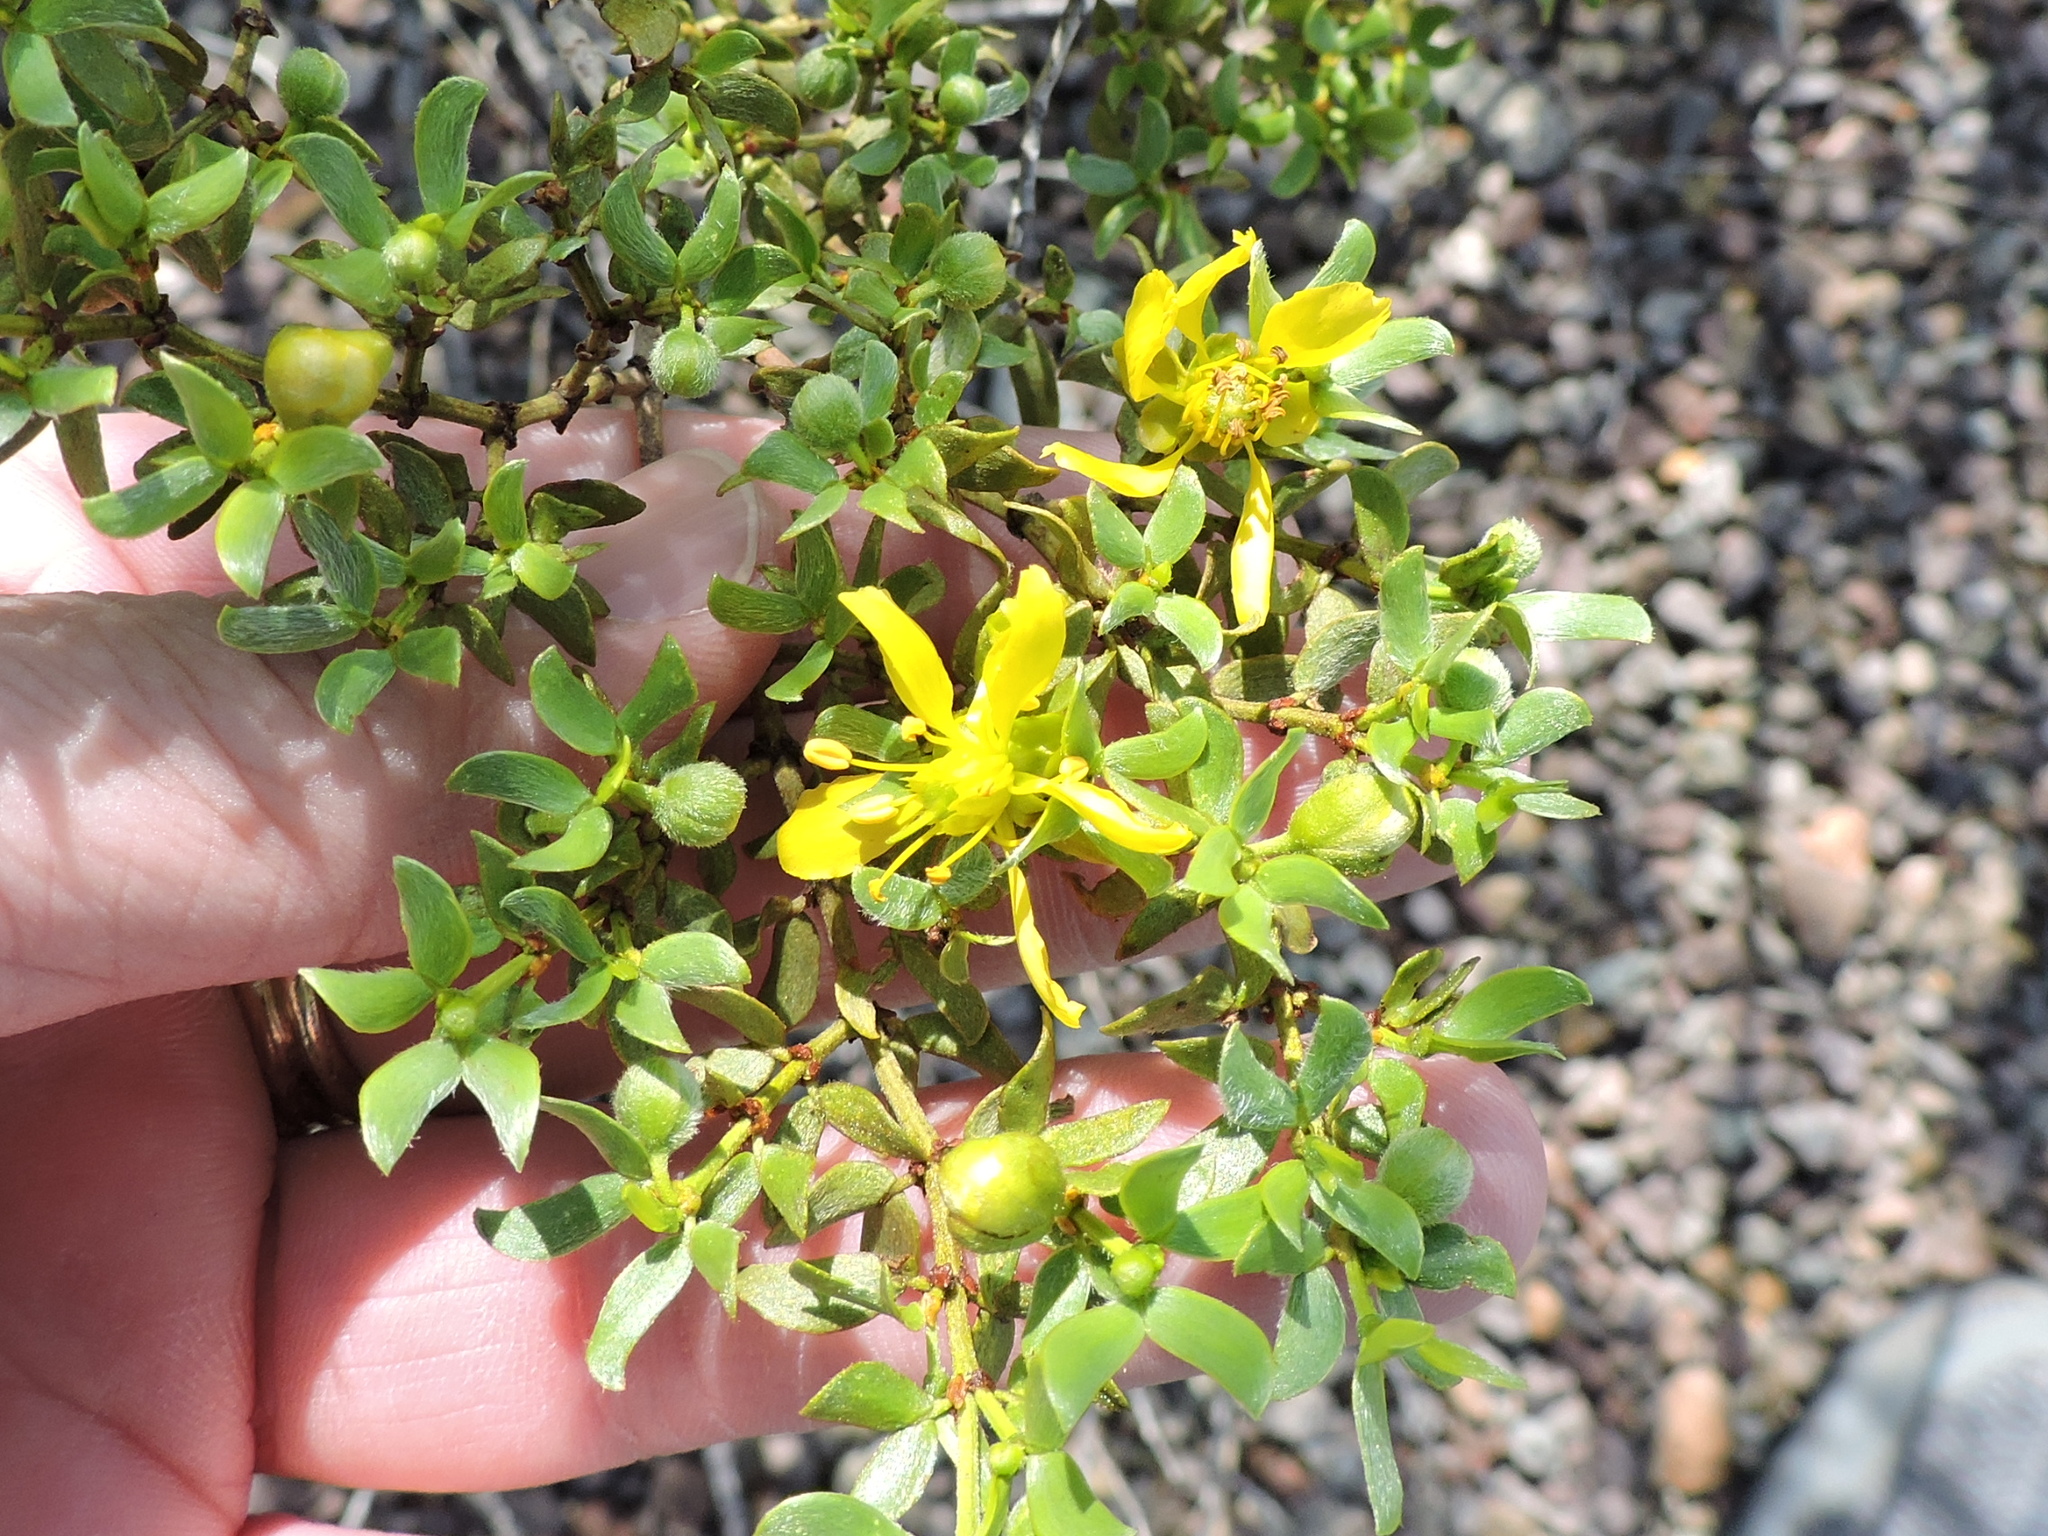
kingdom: Plantae
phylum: Tracheophyta
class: Magnoliopsida
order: Zygophyllales
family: Zygophyllaceae
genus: Larrea
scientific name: Larrea tridentata
